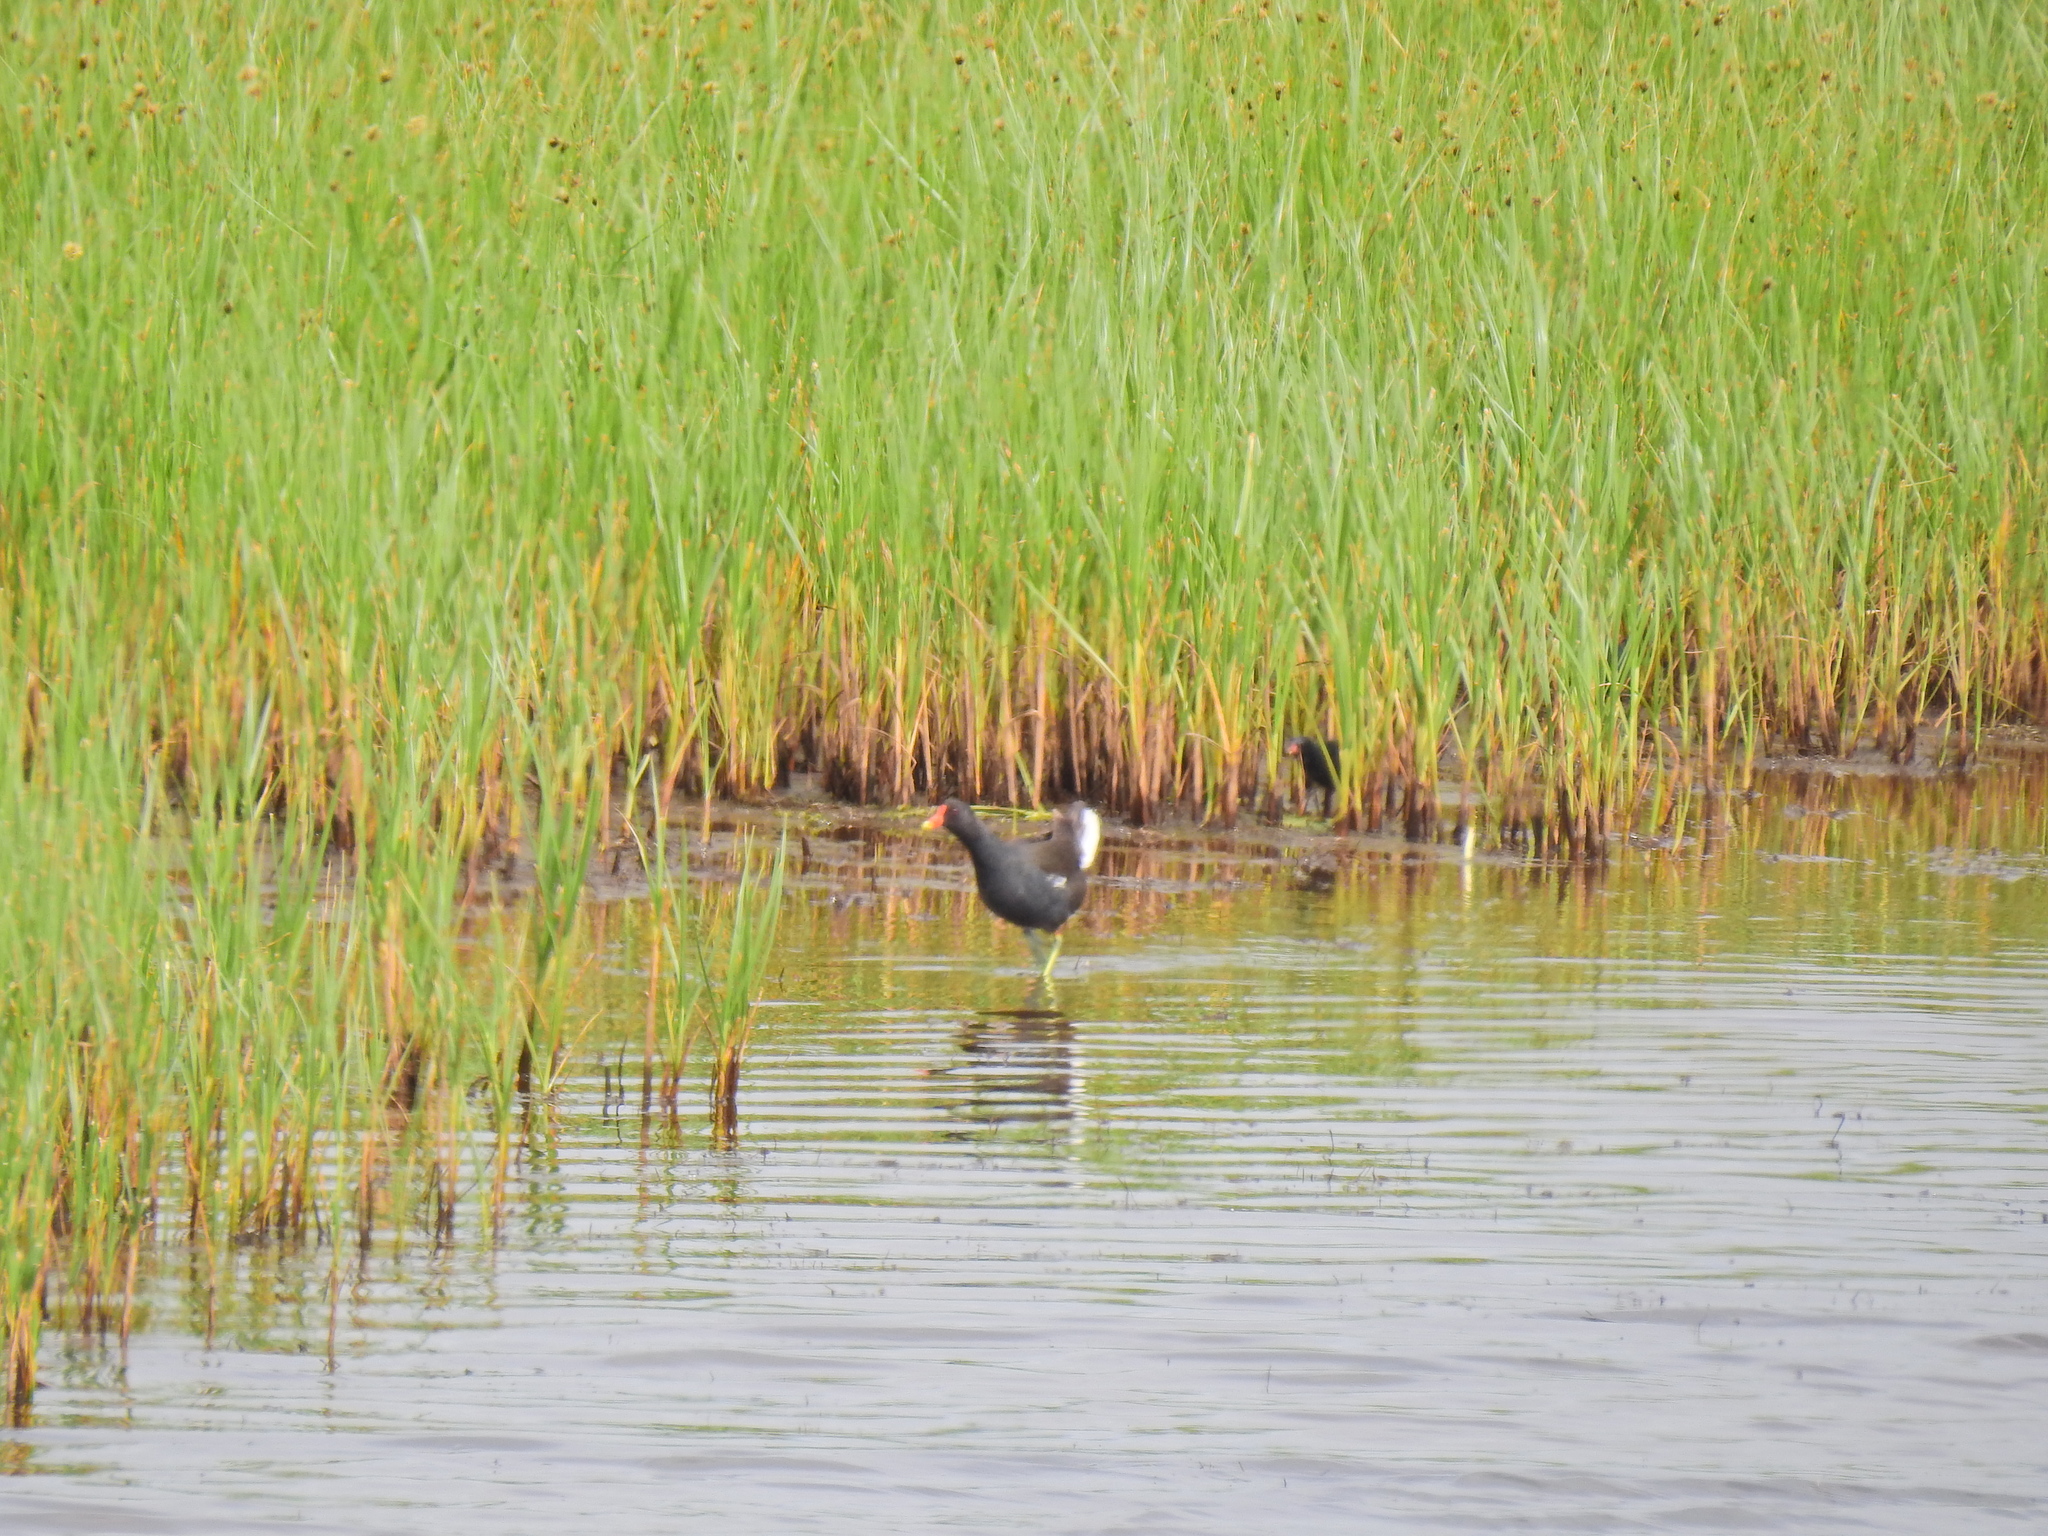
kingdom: Animalia
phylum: Chordata
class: Aves
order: Gruiformes
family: Rallidae
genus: Gallinula
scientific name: Gallinula chloropus
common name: Common moorhen
